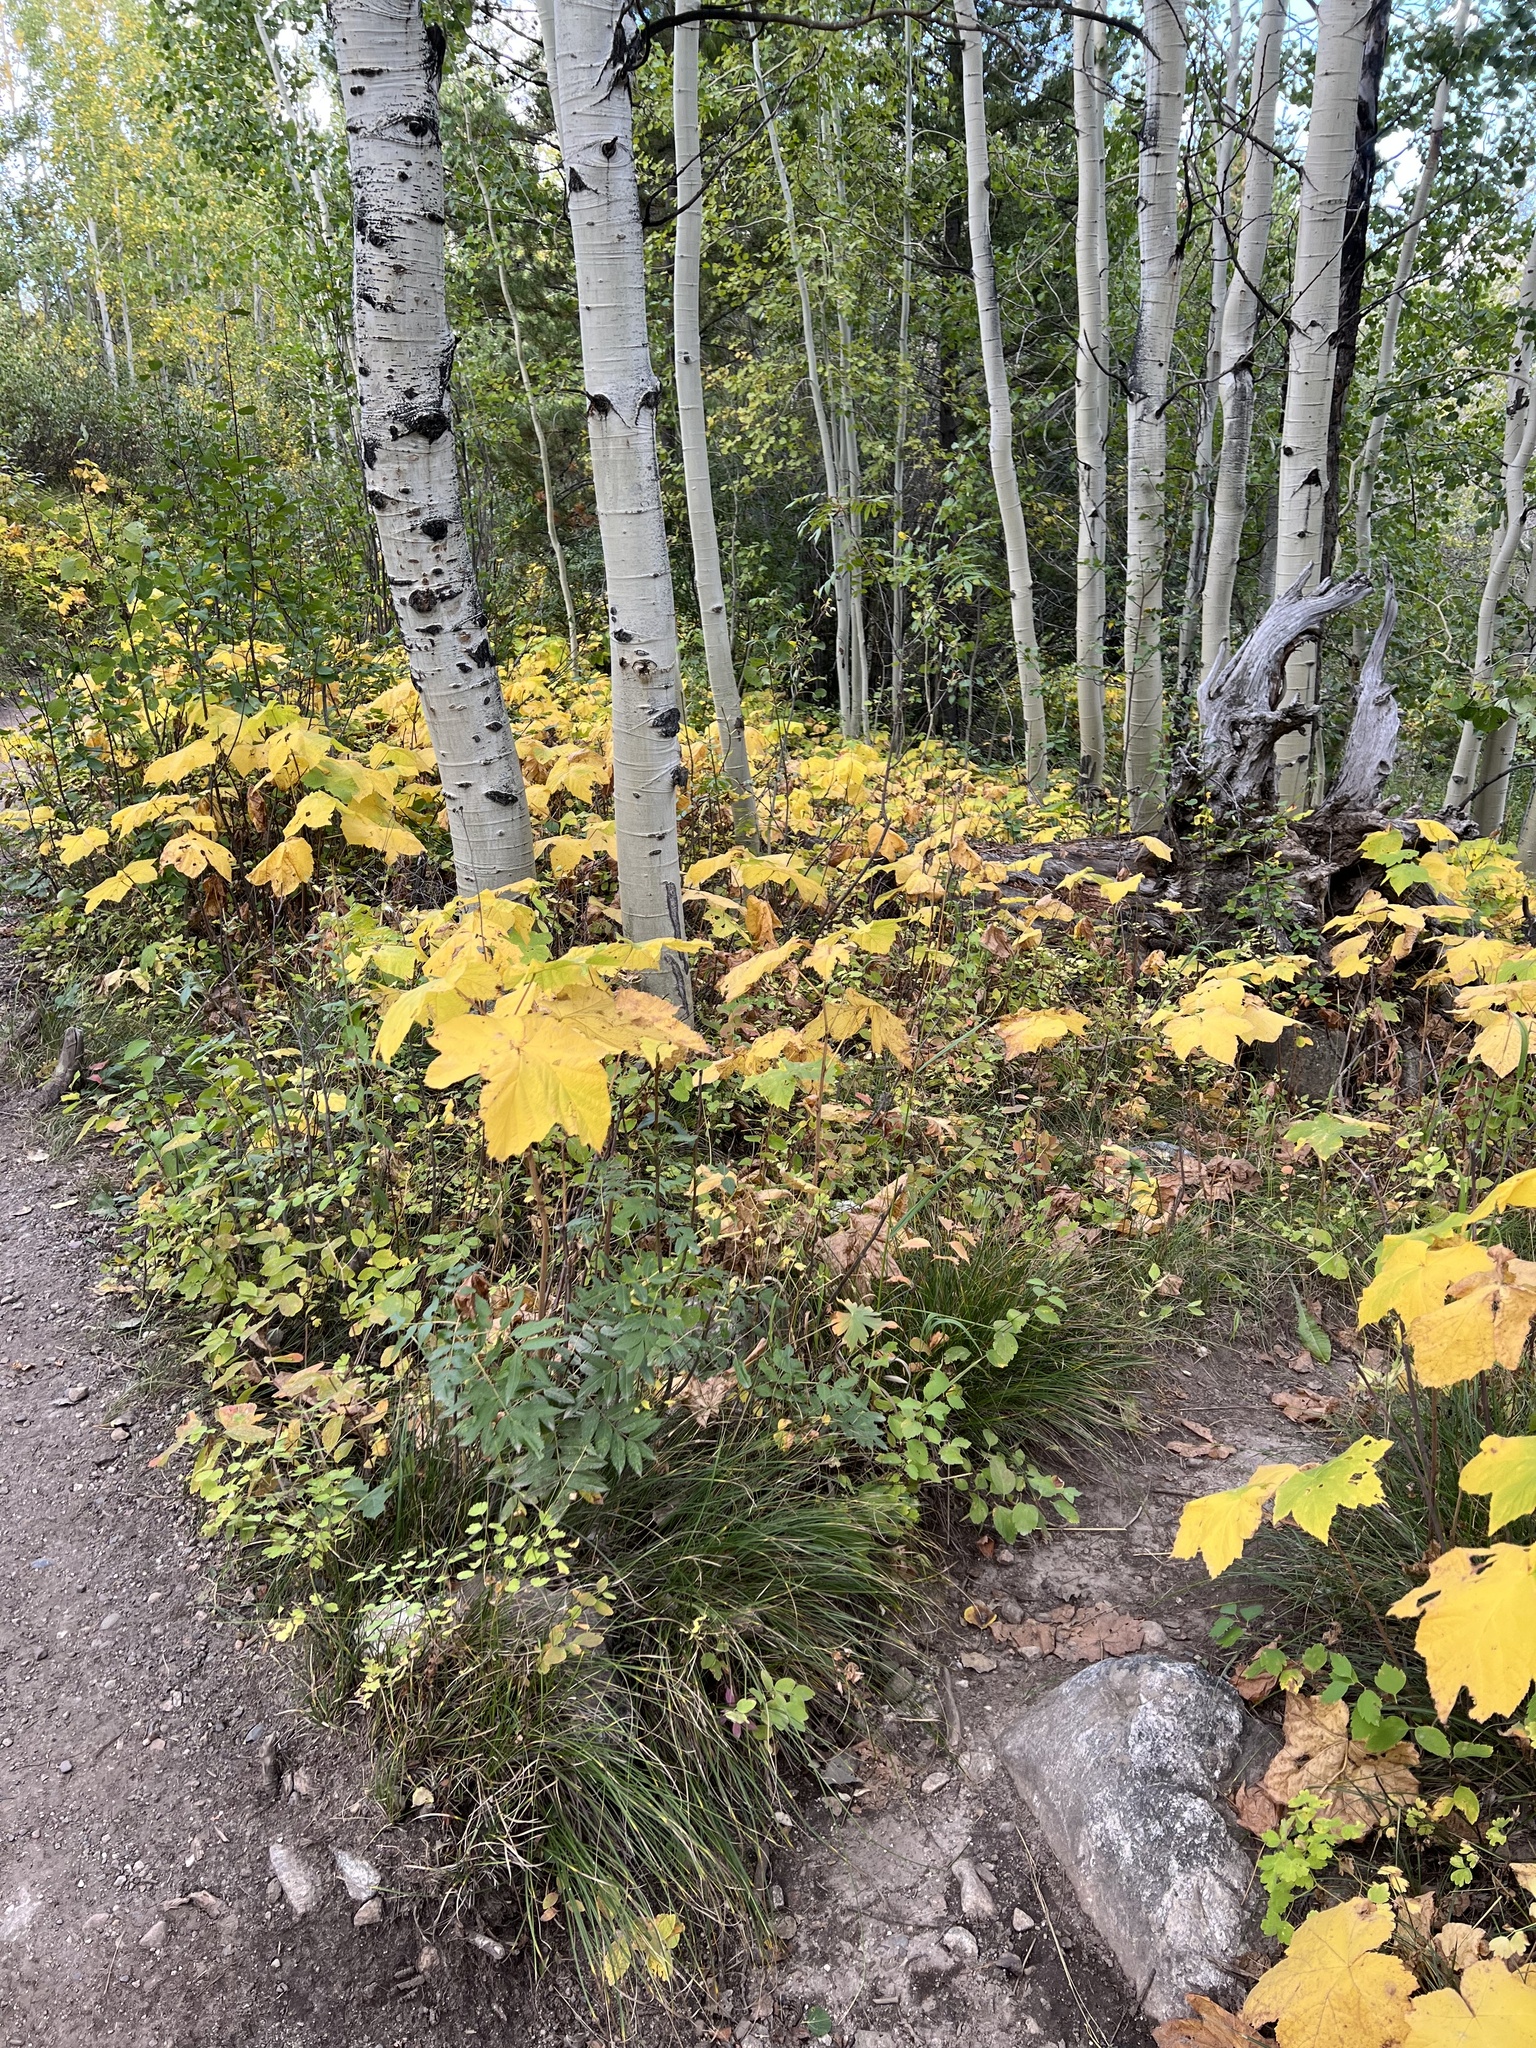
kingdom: Plantae
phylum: Tracheophyta
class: Magnoliopsida
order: Rosales
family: Rosaceae
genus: Rubus
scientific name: Rubus parviflorus
